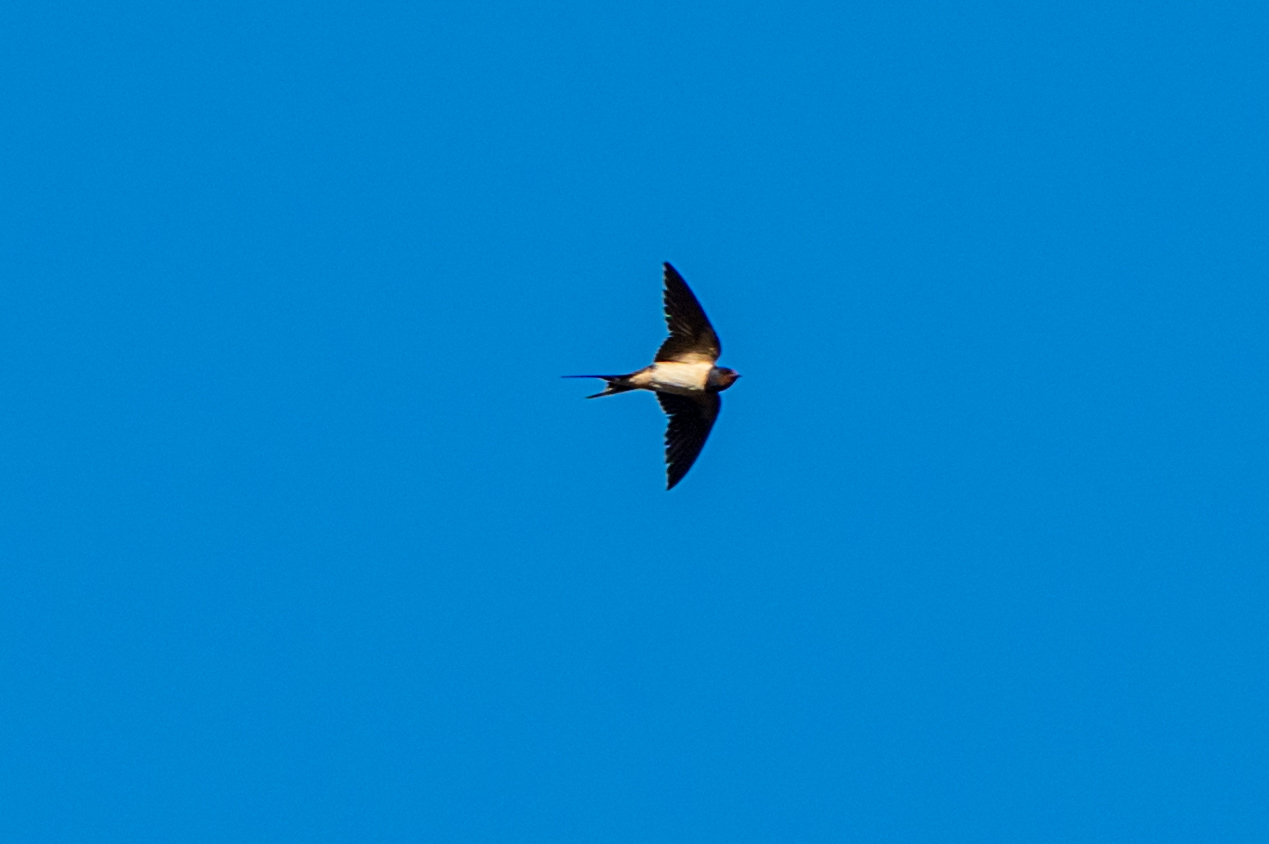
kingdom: Animalia
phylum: Chordata
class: Aves
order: Passeriformes
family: Hirundinidae
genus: Hirundo
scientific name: Hirundo rustica
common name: Barn swallow
